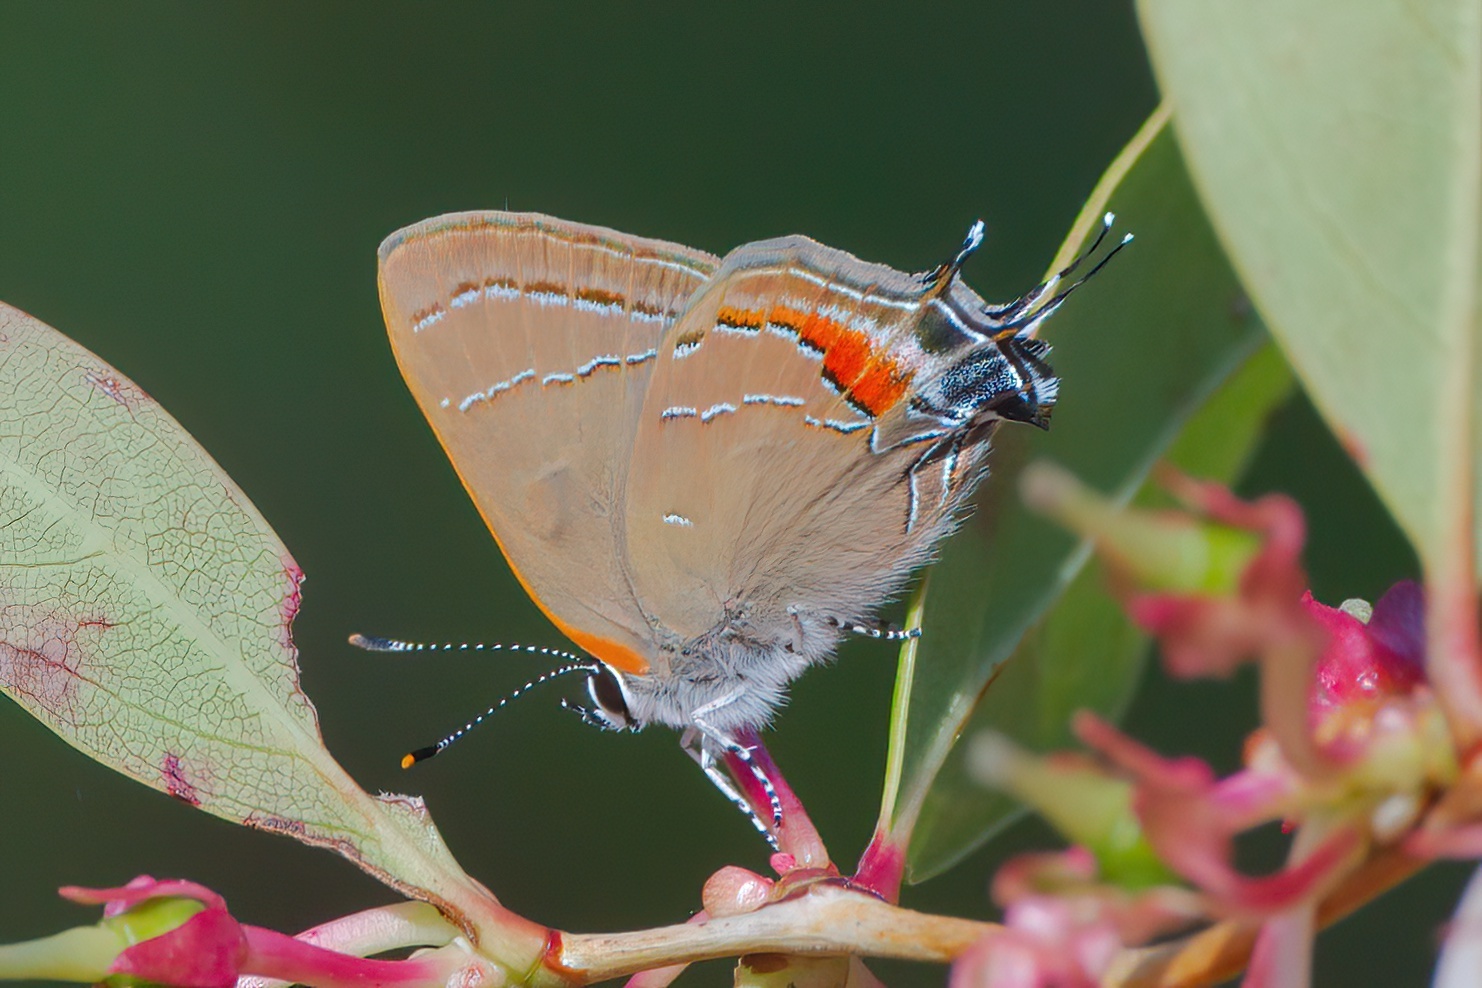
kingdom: Animalia
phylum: Arthropoda
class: Insecta
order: Lepidoptera
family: Lycaenidae
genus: Fixsenia
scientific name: Fixsenia favonius
